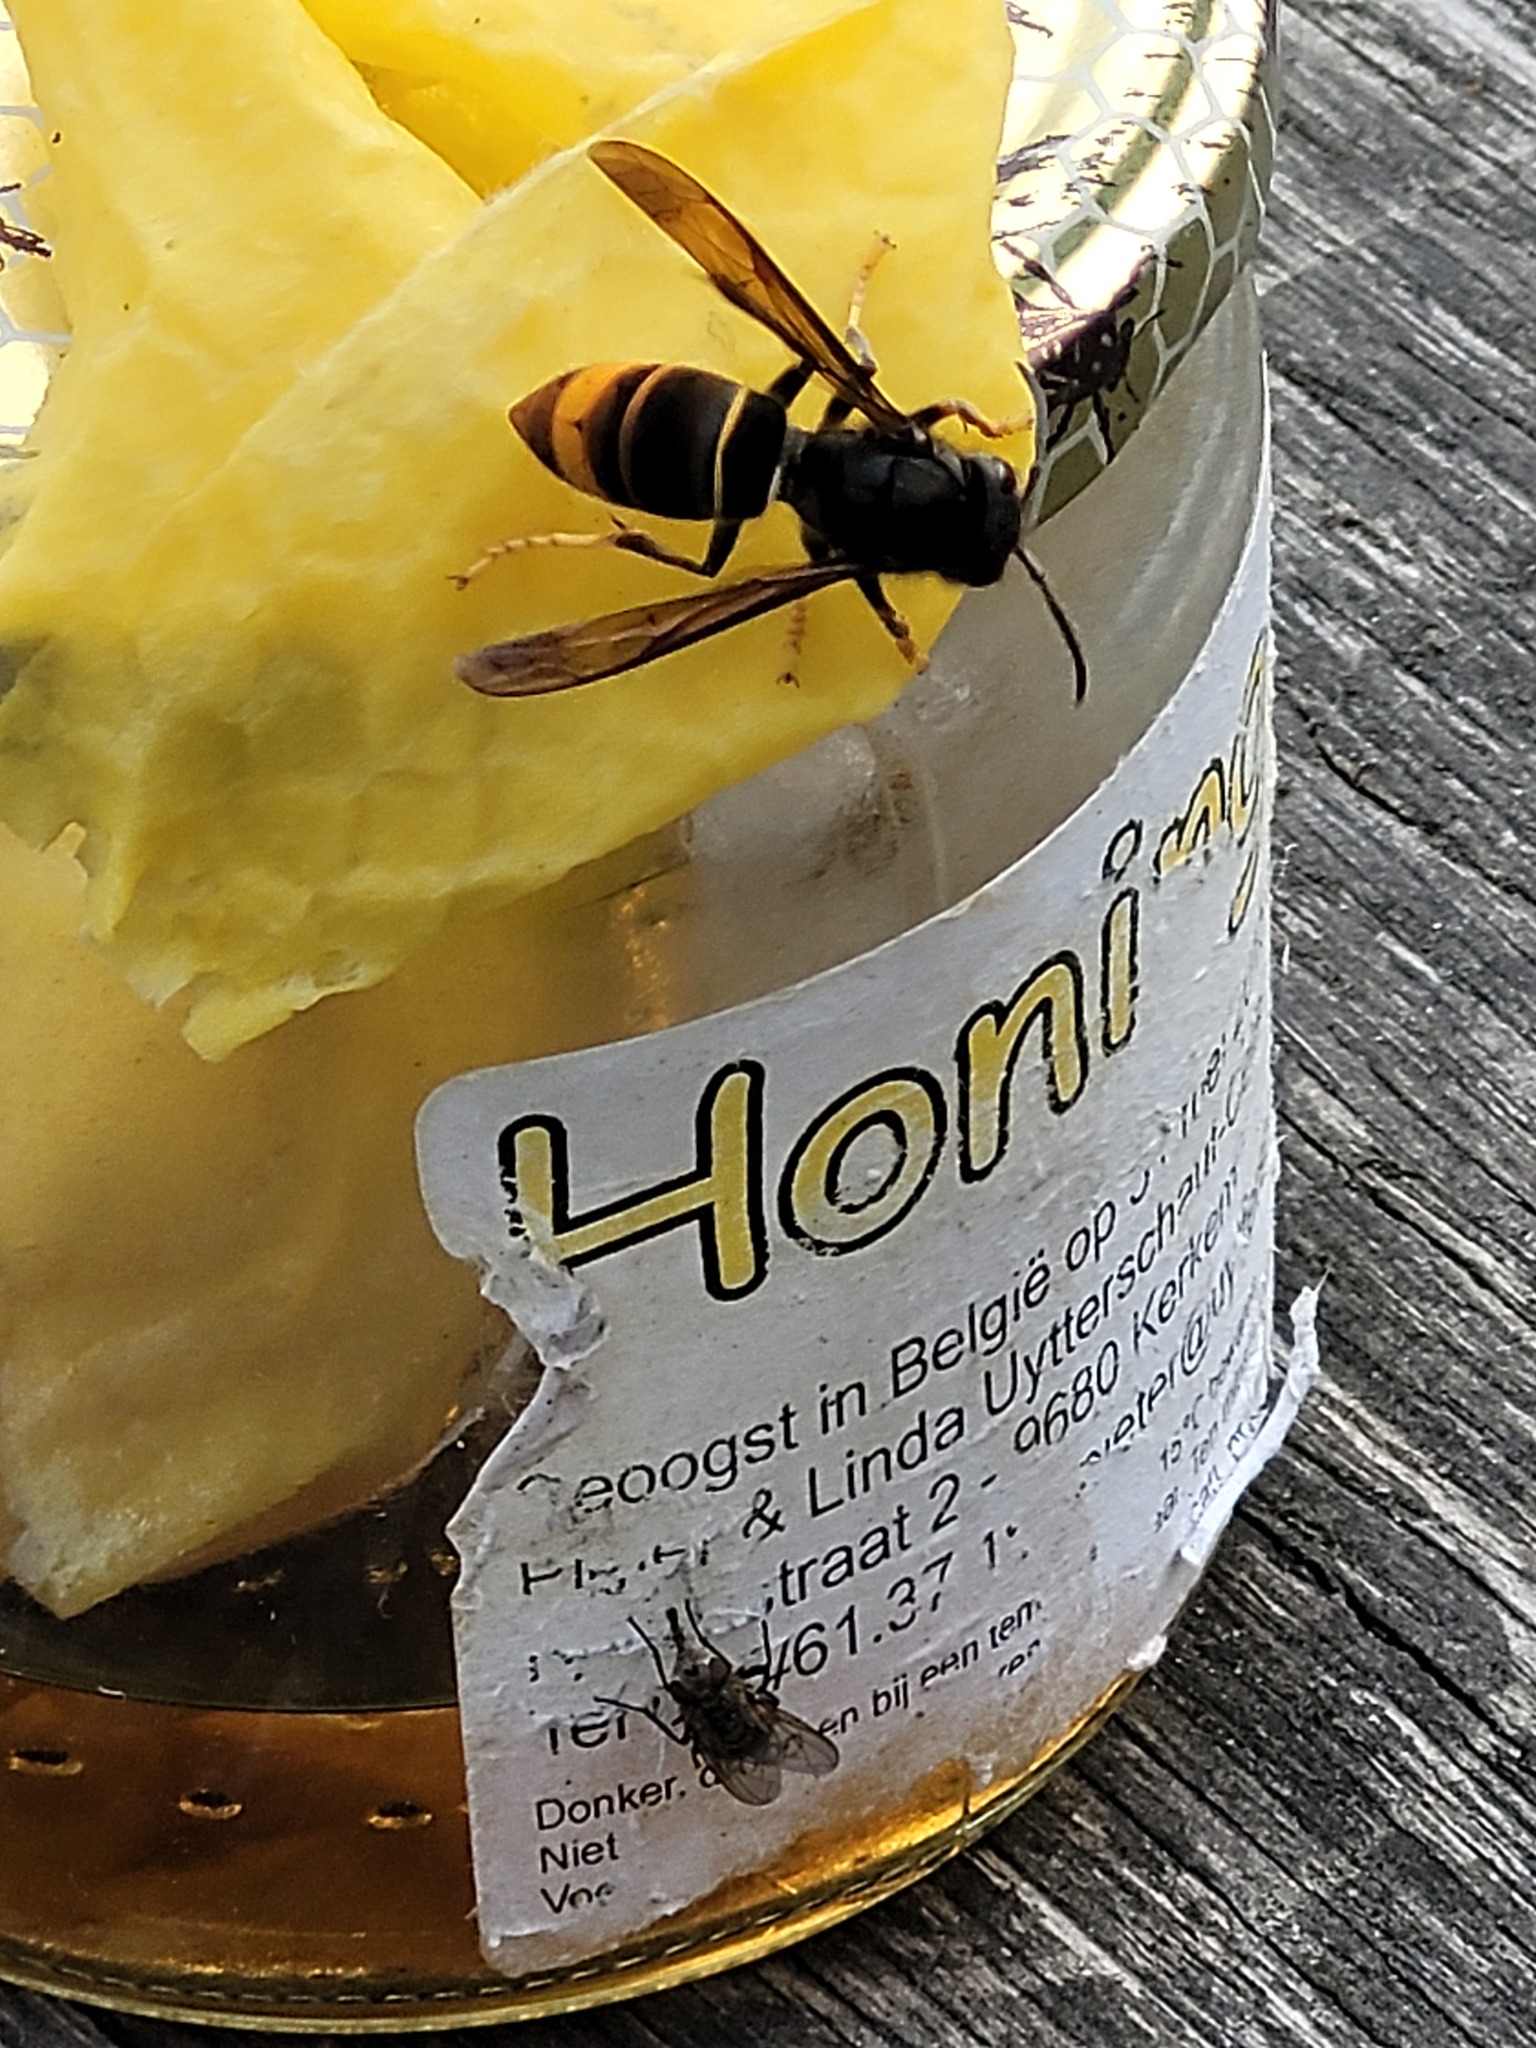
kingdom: Animalia
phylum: Arthropoda
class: Insecta
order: Hymenoptera
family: Vespidae
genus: Vespa
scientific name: Vespa velutina
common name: Asian hornet
